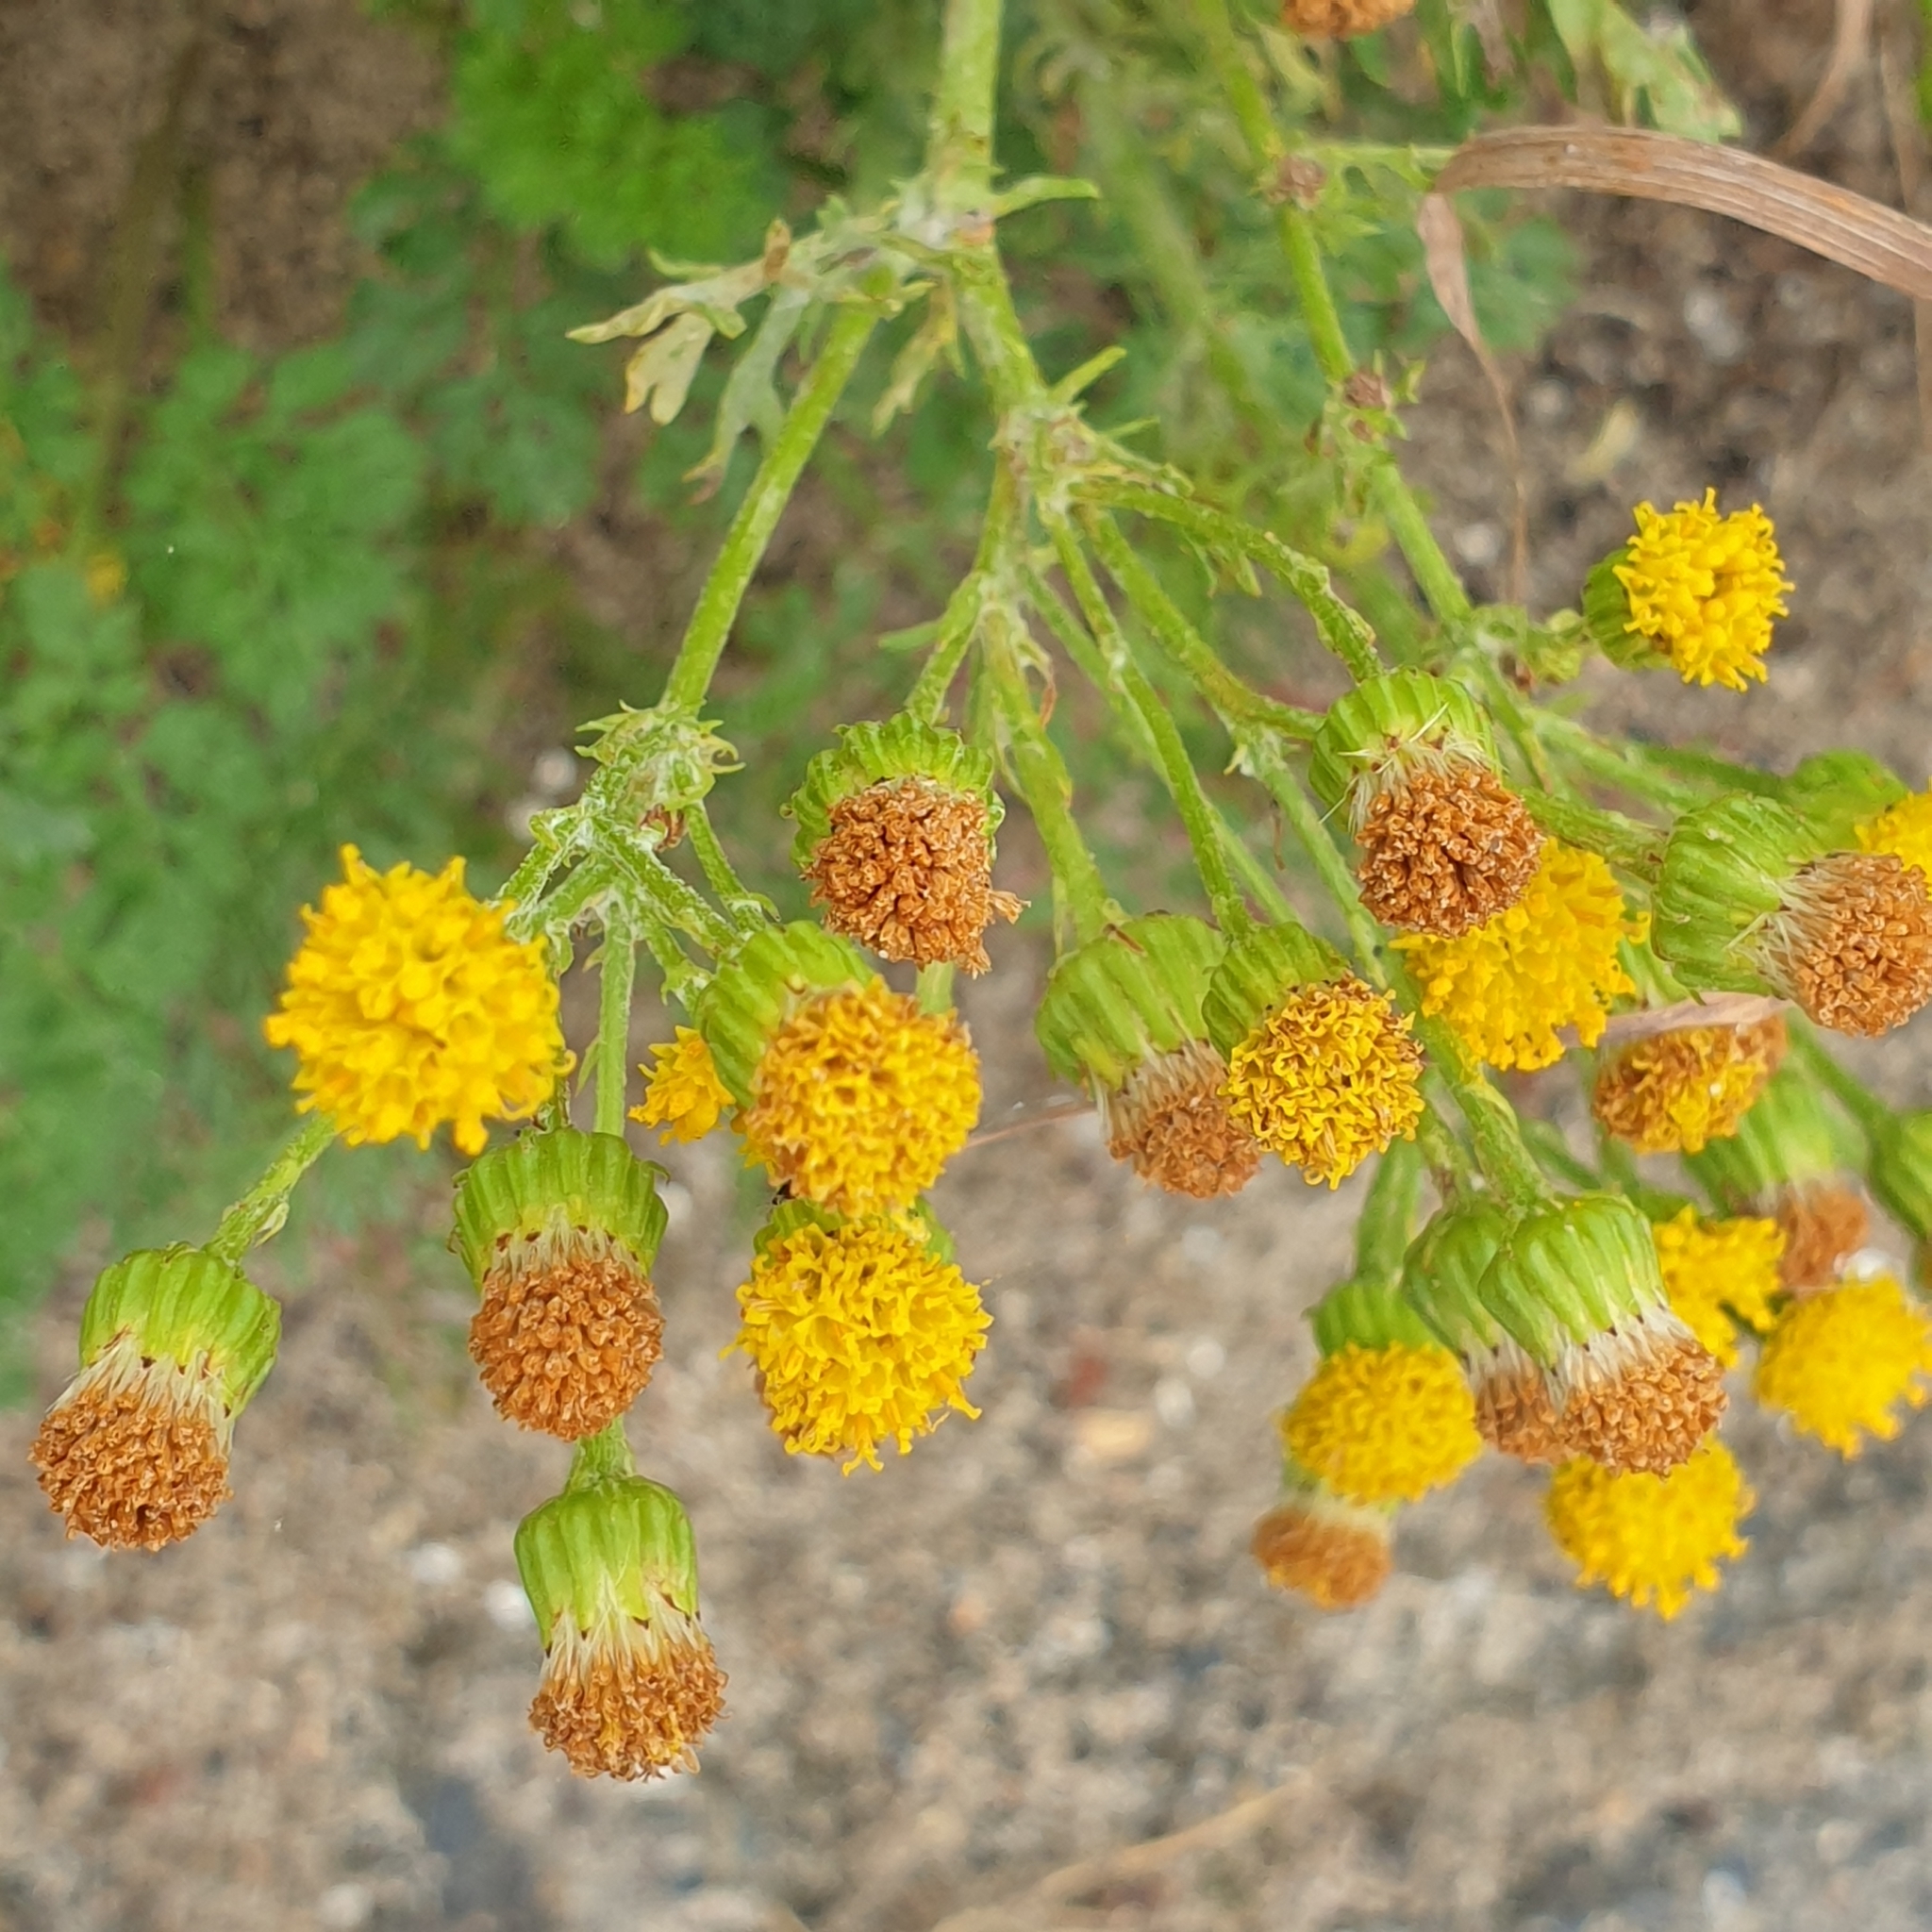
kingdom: Plantae
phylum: Tracheophyta
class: Magnoliopsida
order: Asterales
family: Asteraceae
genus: Jacobaea
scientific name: Jacobaea vulgaris
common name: Stinking willie
